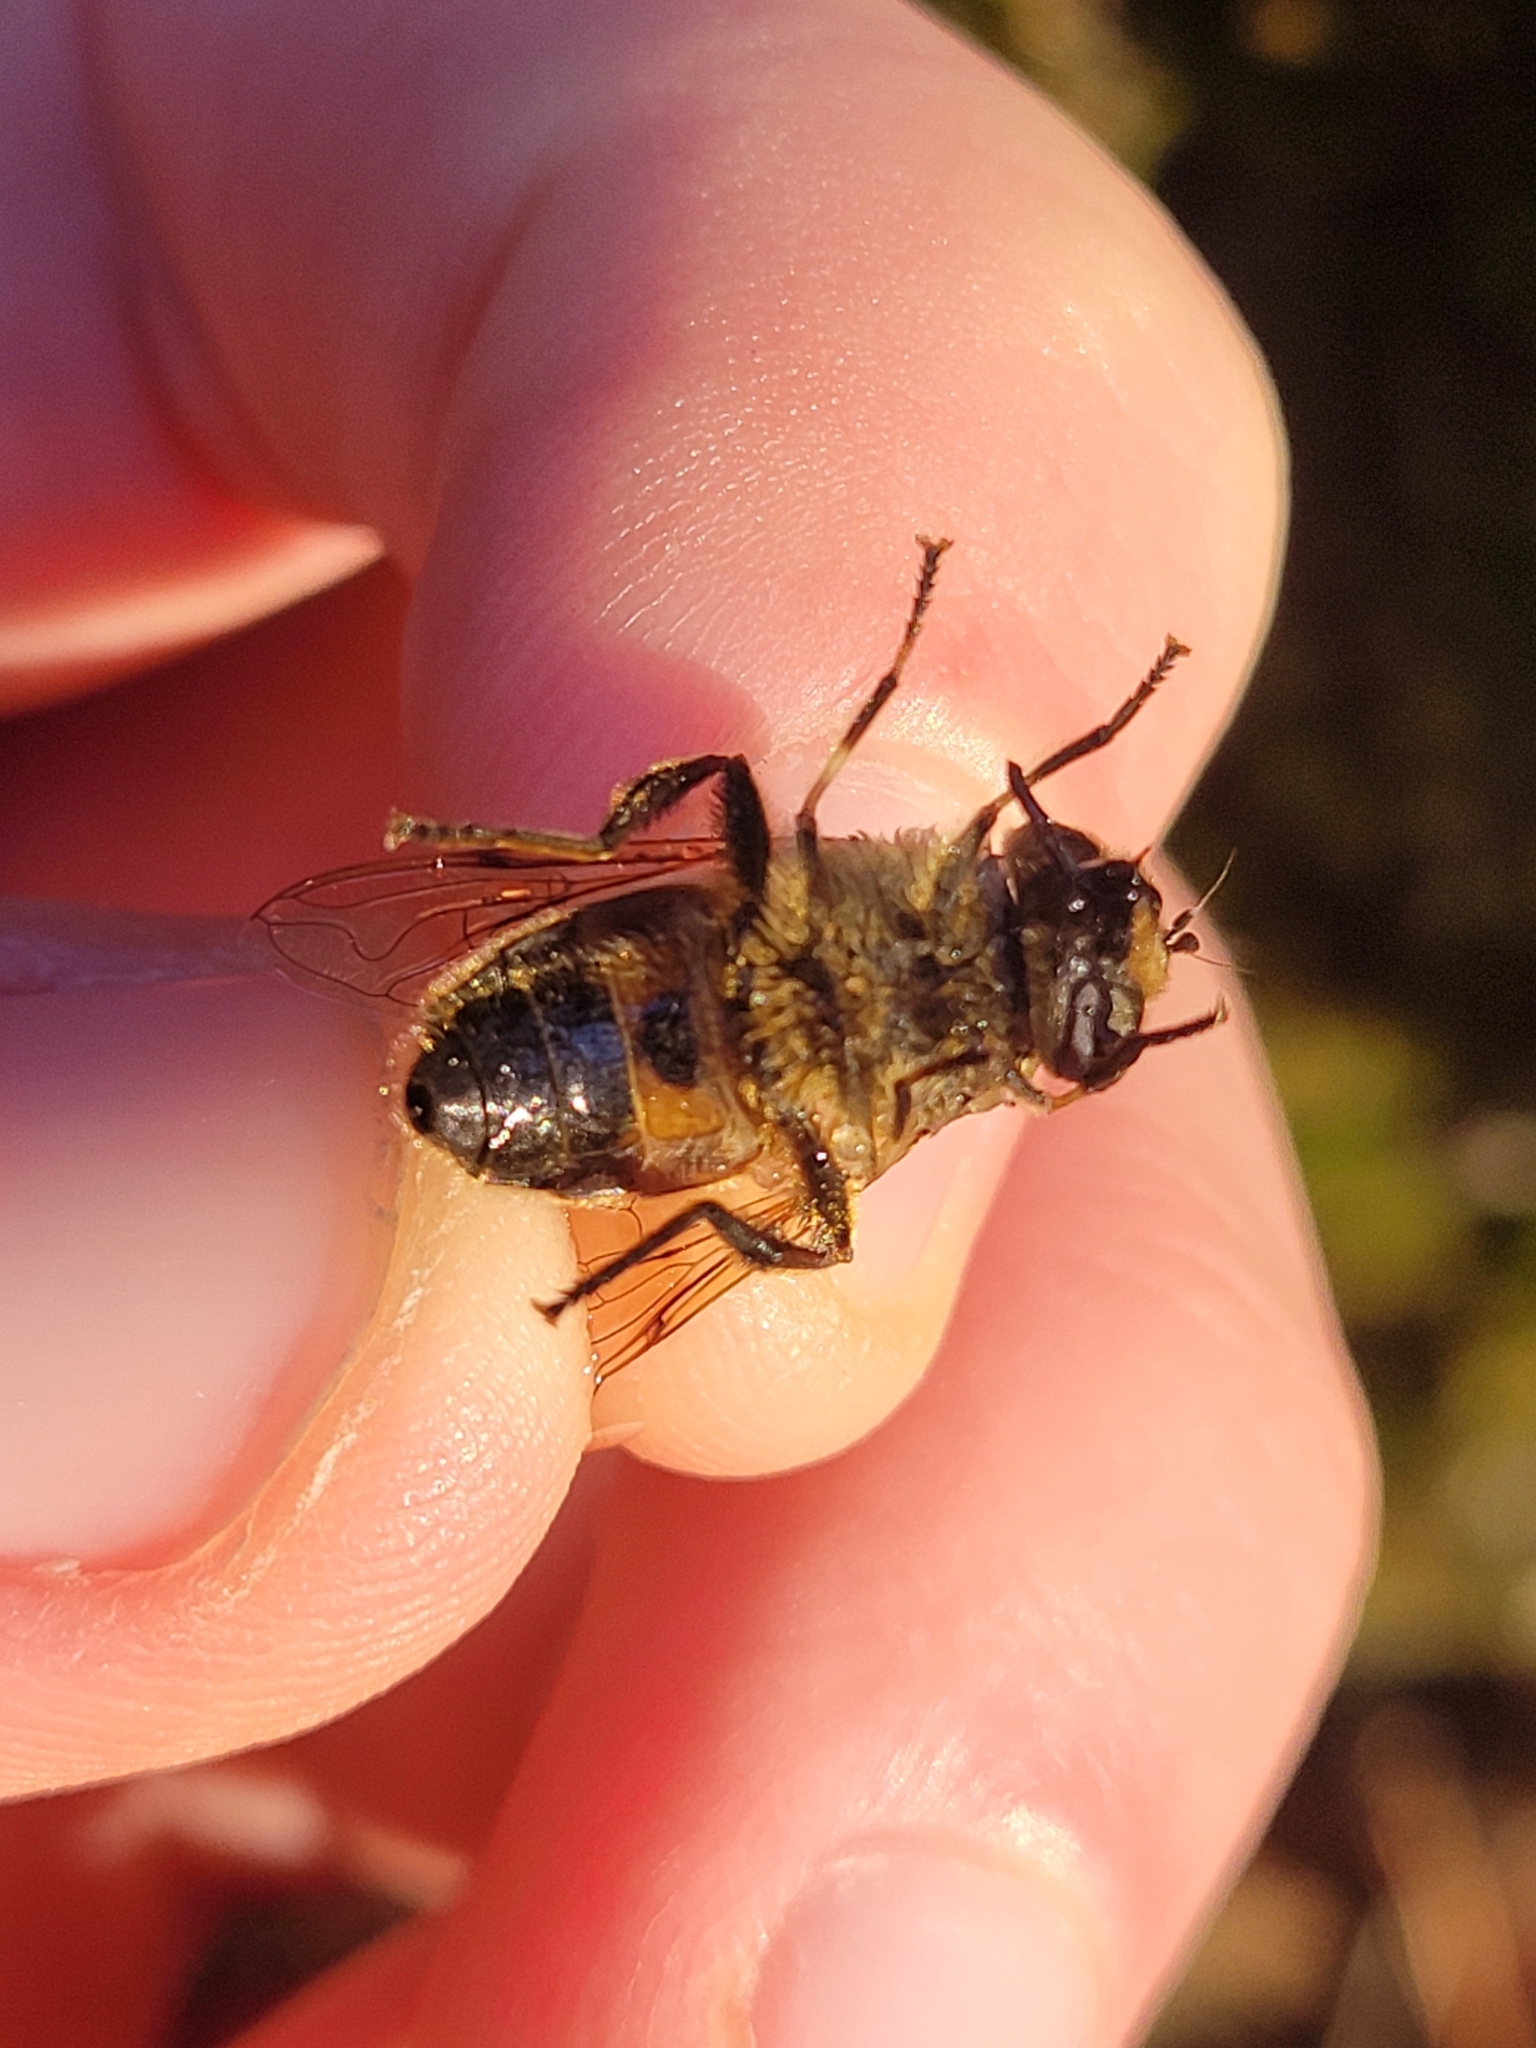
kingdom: Animalia
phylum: Arthropoda
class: Insecta
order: Diptera
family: Syrphidae
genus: Eristalis
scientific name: Eristalis tenax
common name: Drone fly
